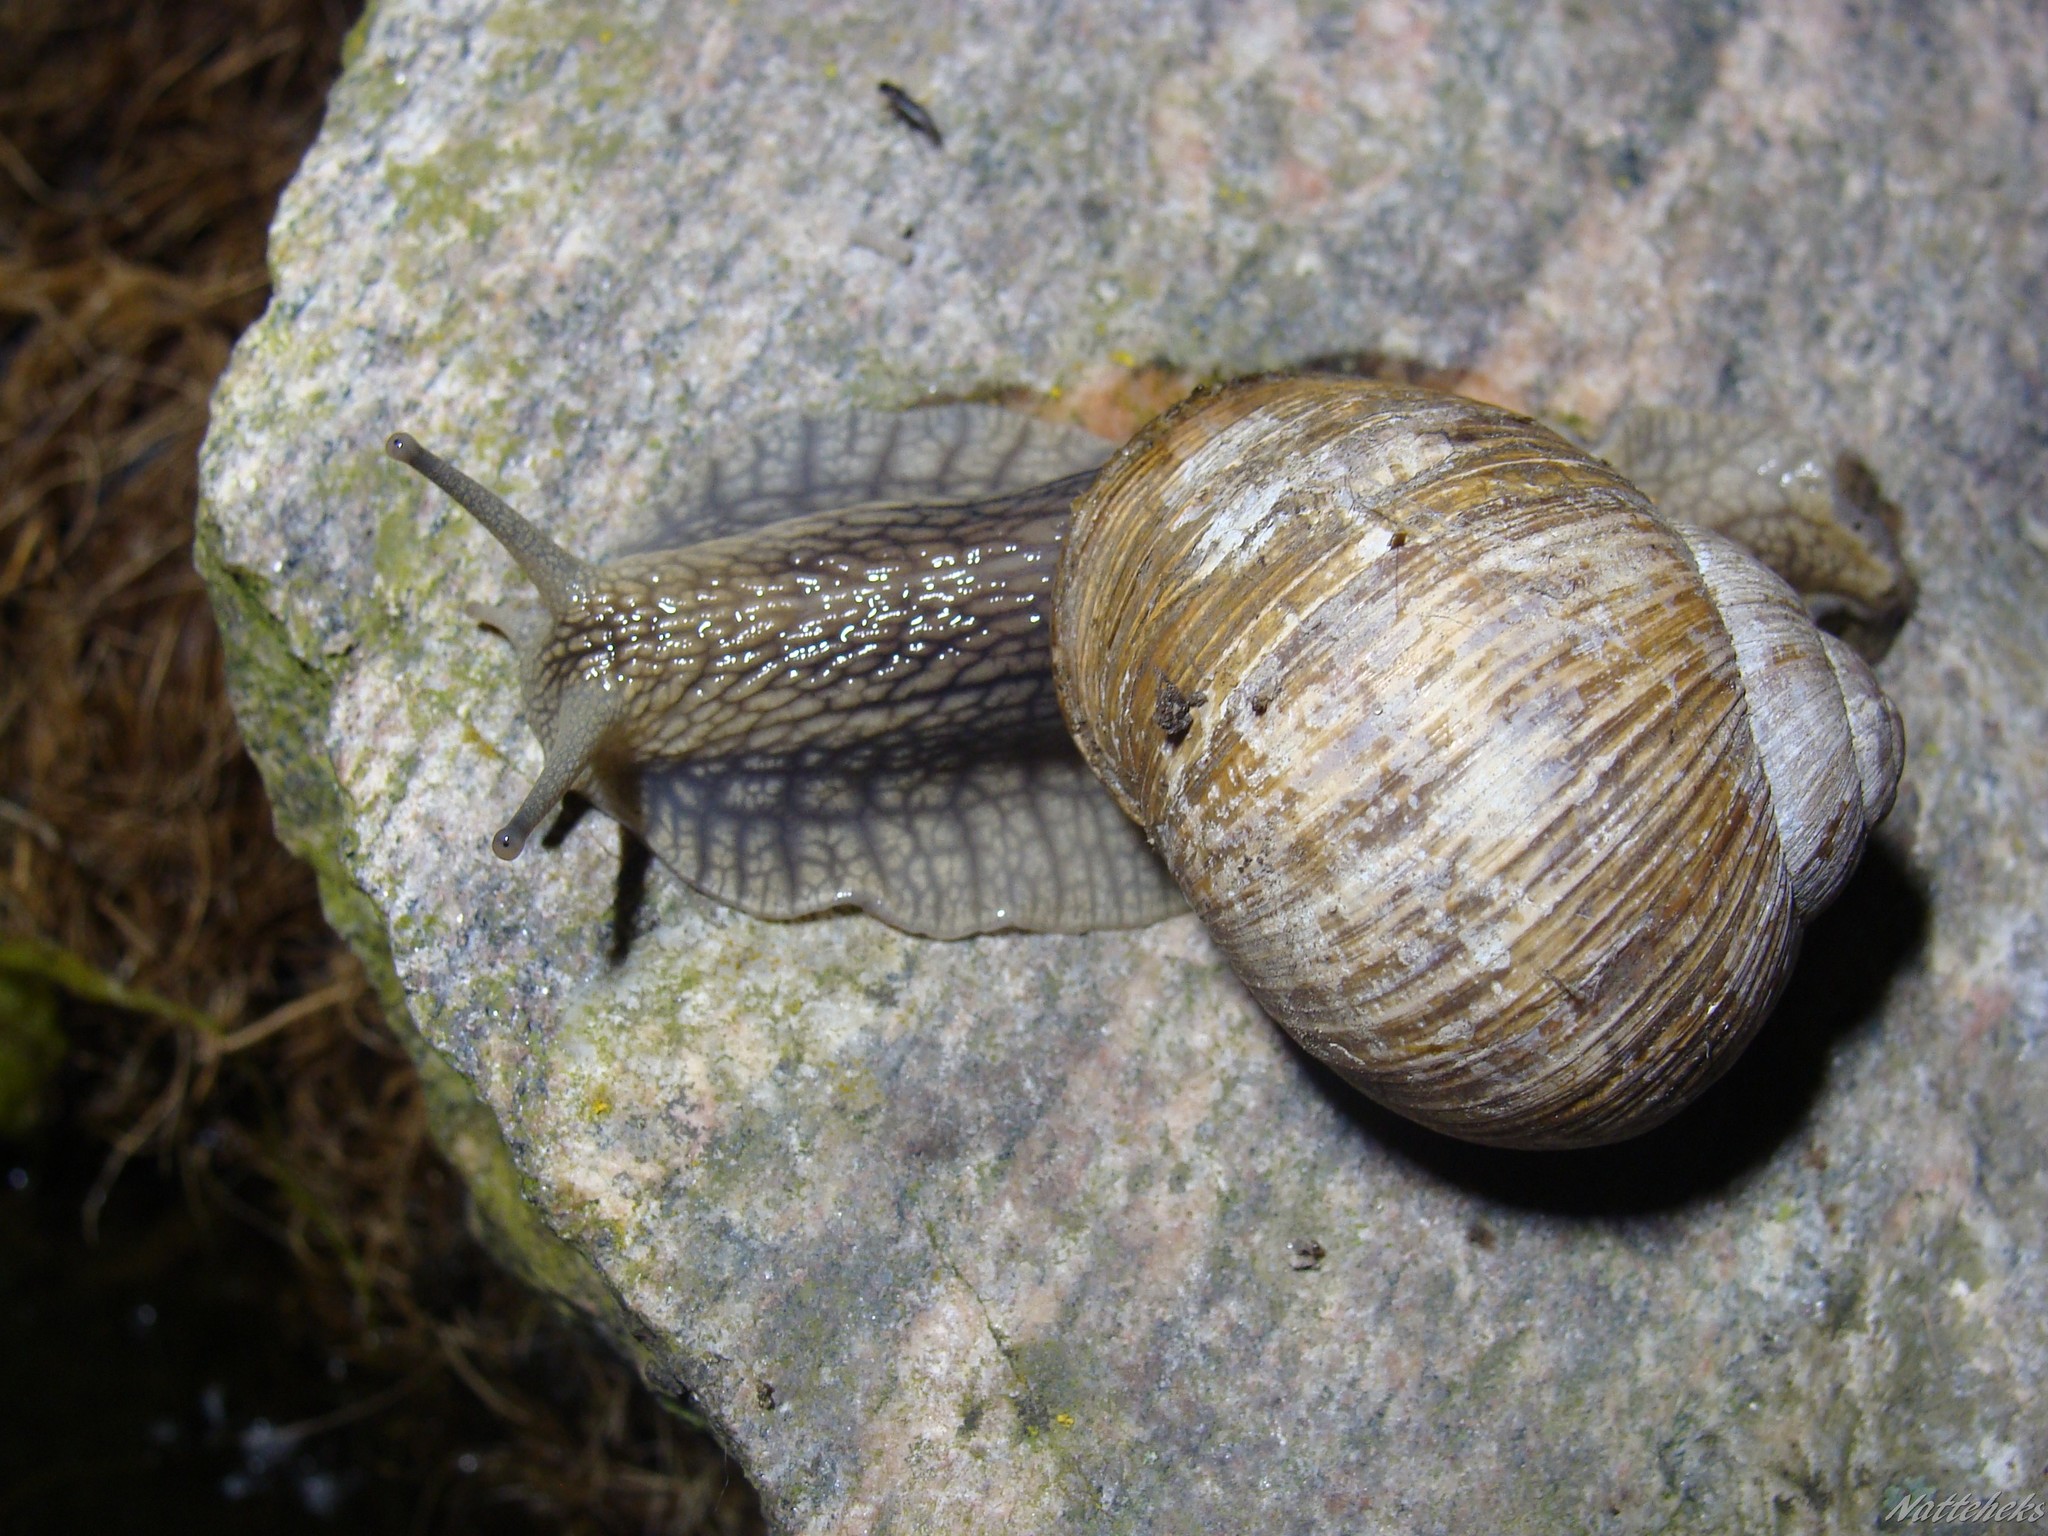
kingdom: Animalia
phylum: Mollusca
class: Gastropoda
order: Stylommatophora
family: Helicidae
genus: Helix
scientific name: Helix pomatia
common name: Roman snail
